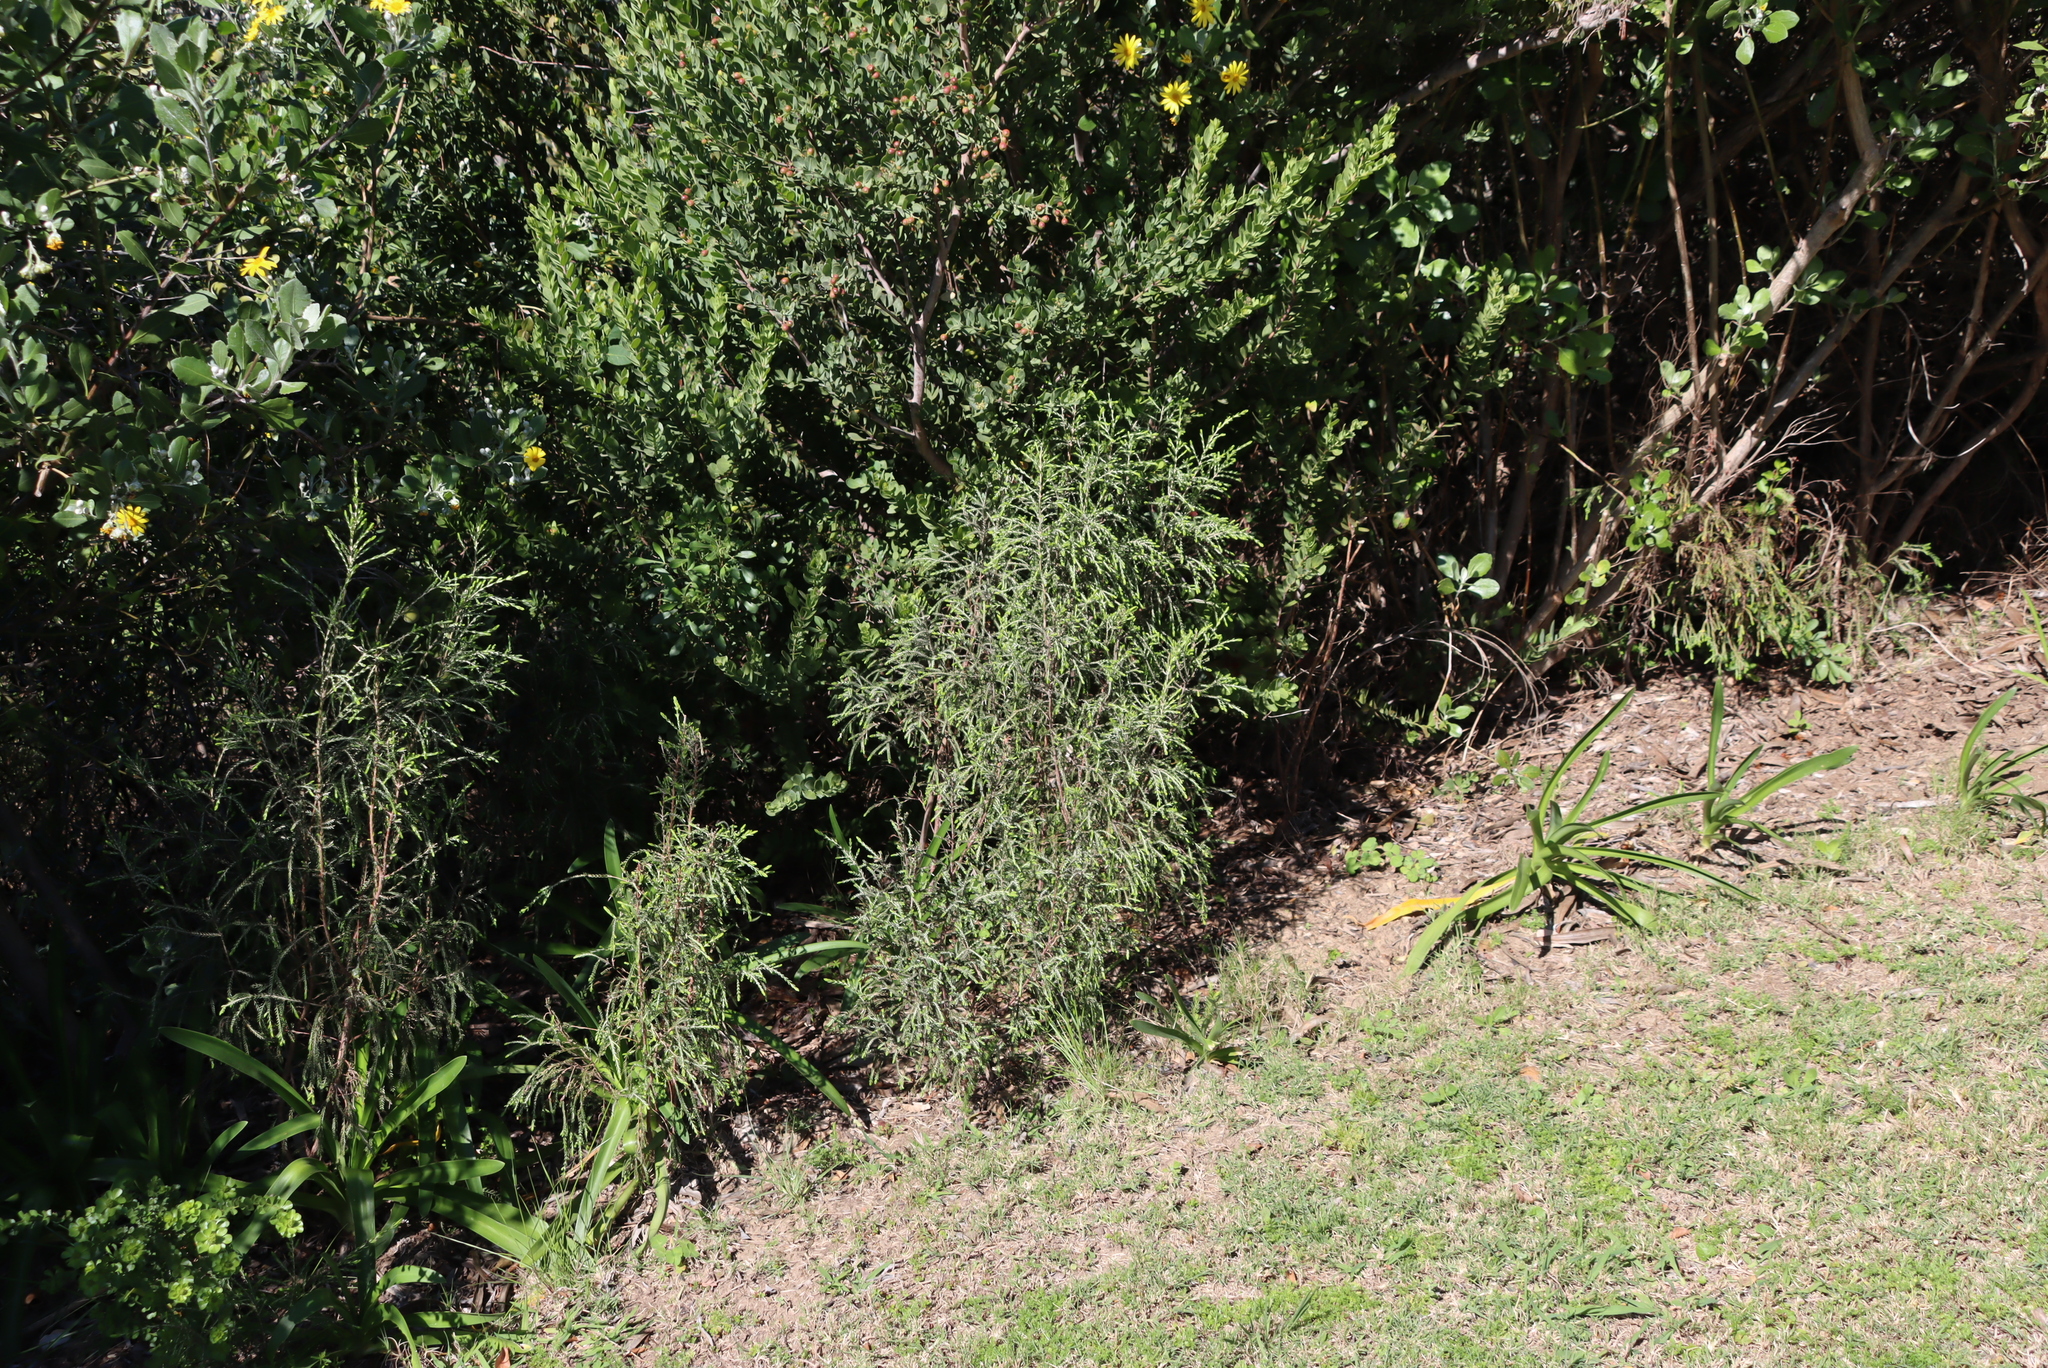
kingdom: Plantae
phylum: Tracheophyta
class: Magnoliopsida
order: Malvales
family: Thymelaeaceae
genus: Passerina
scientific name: Passerina falcifolia
